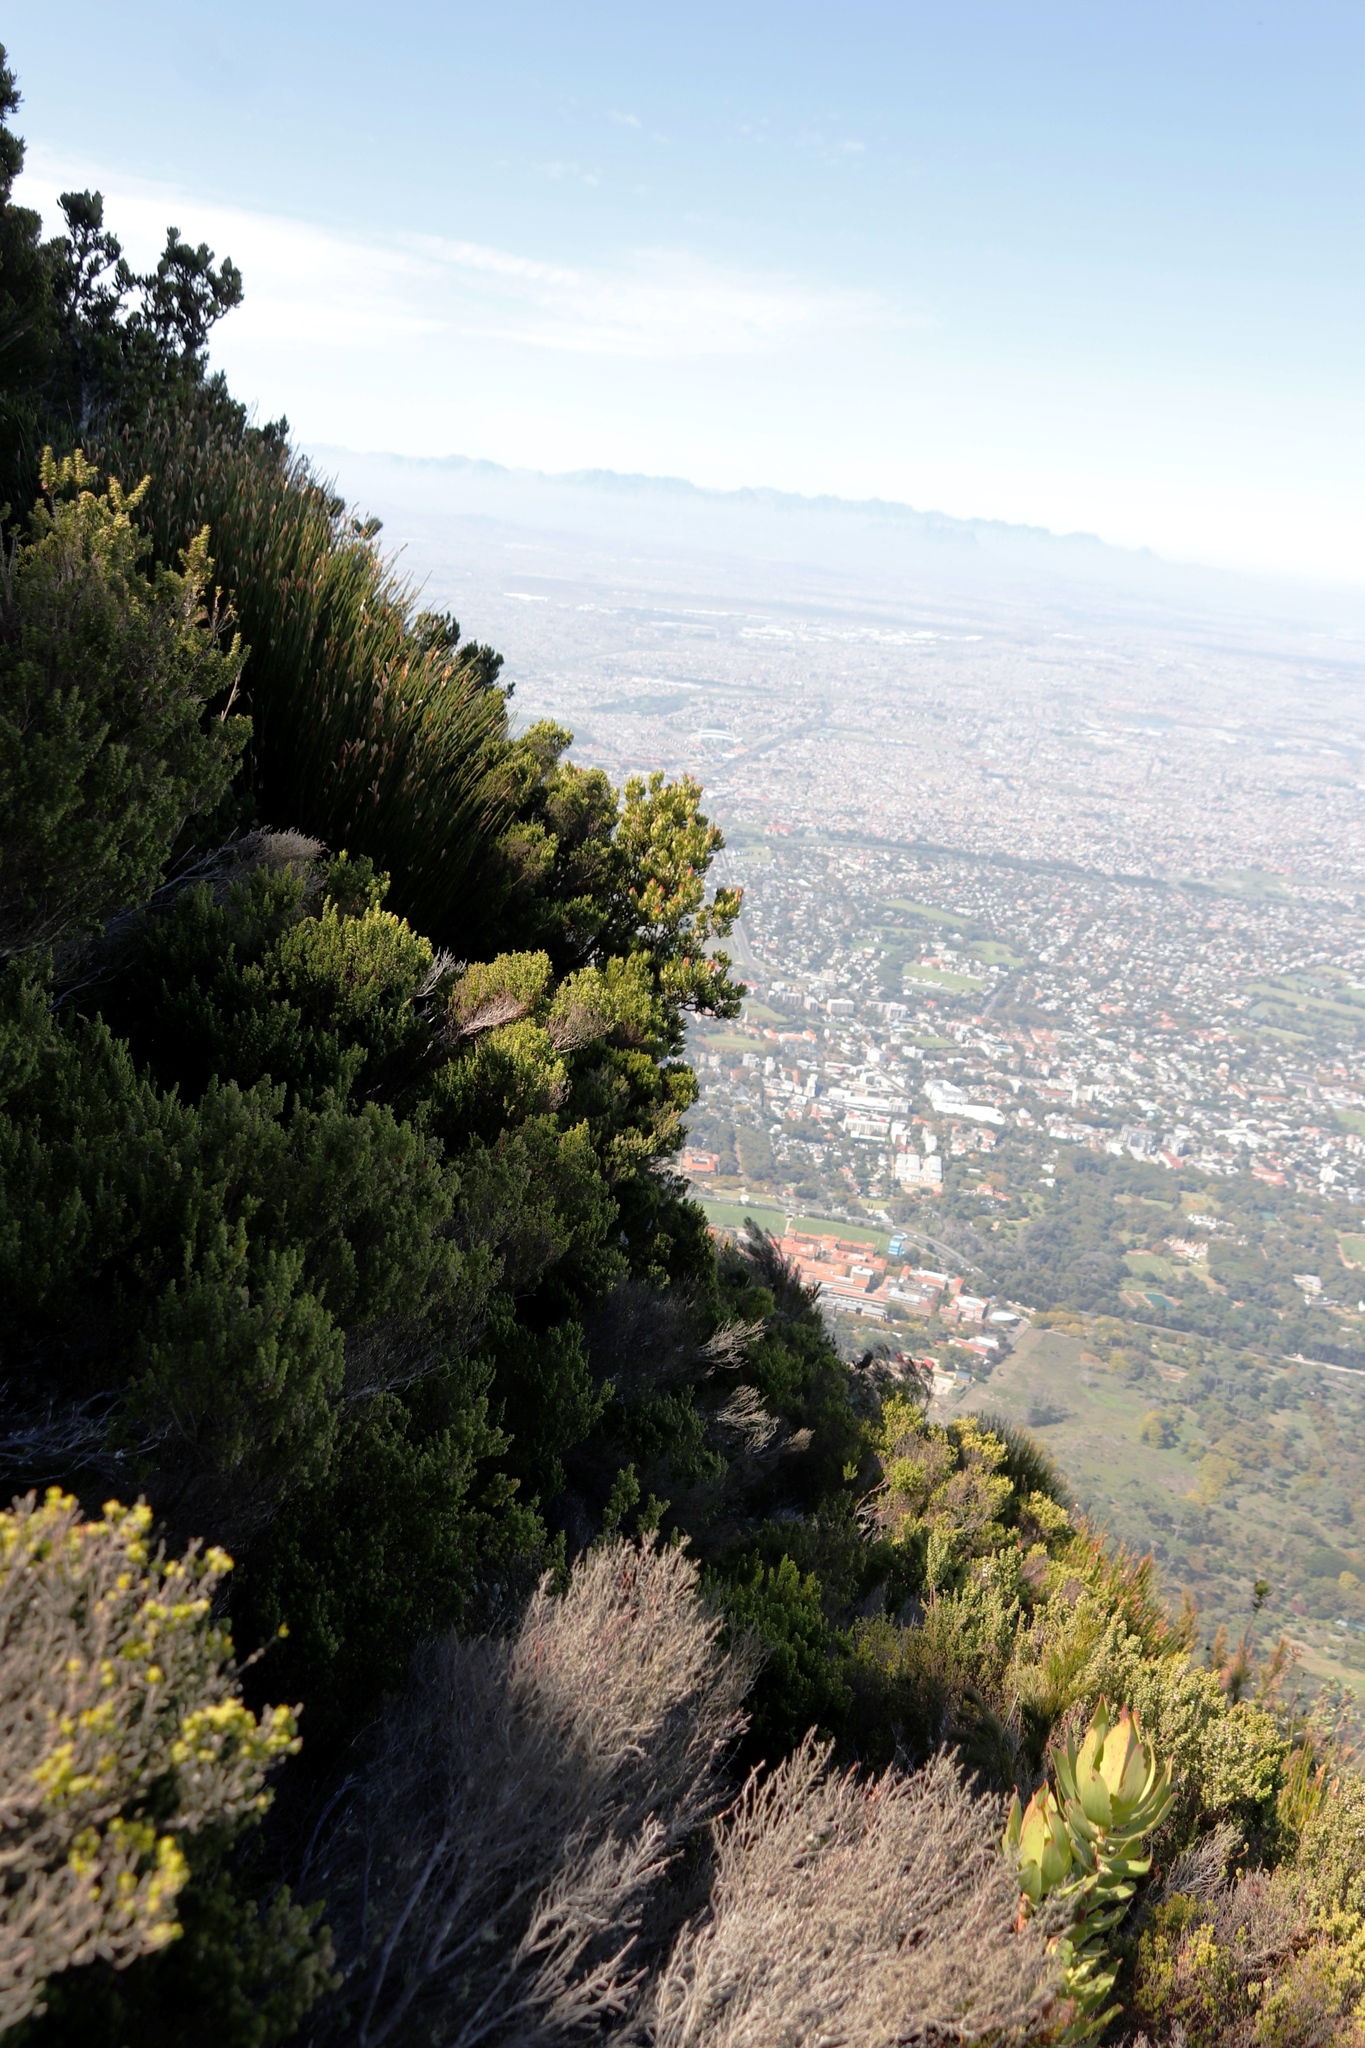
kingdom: Plantae
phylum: Tracheophyta
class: Magnoliopsida
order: Proteales
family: Proteaceae
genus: Leucadendron
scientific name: Leucadendron strobilinum
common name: Mountain rose
